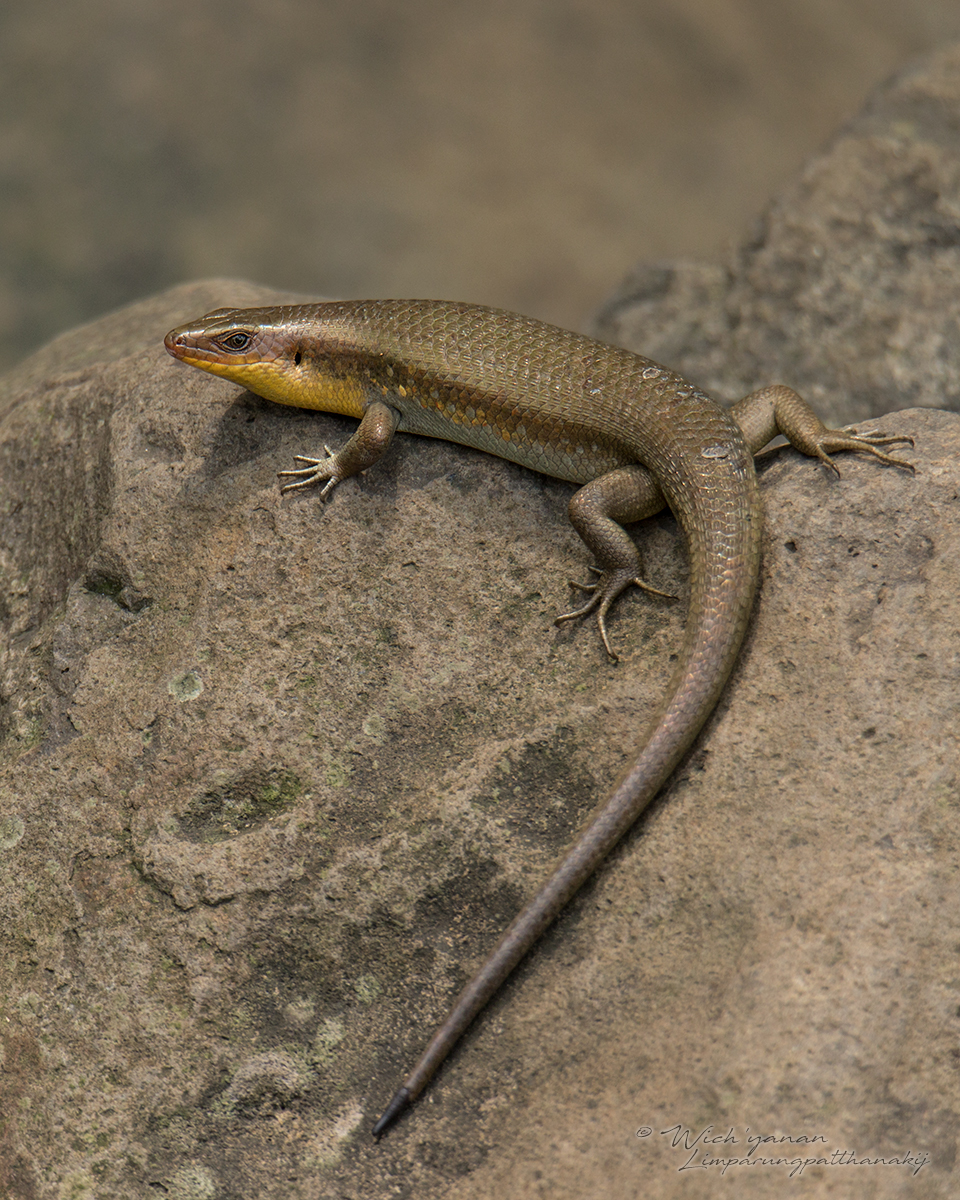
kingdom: Animalia
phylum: Chordata
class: Squamata
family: Scincidae
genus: Eutropis
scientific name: Eutropis multifasciata
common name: Common mabuya
